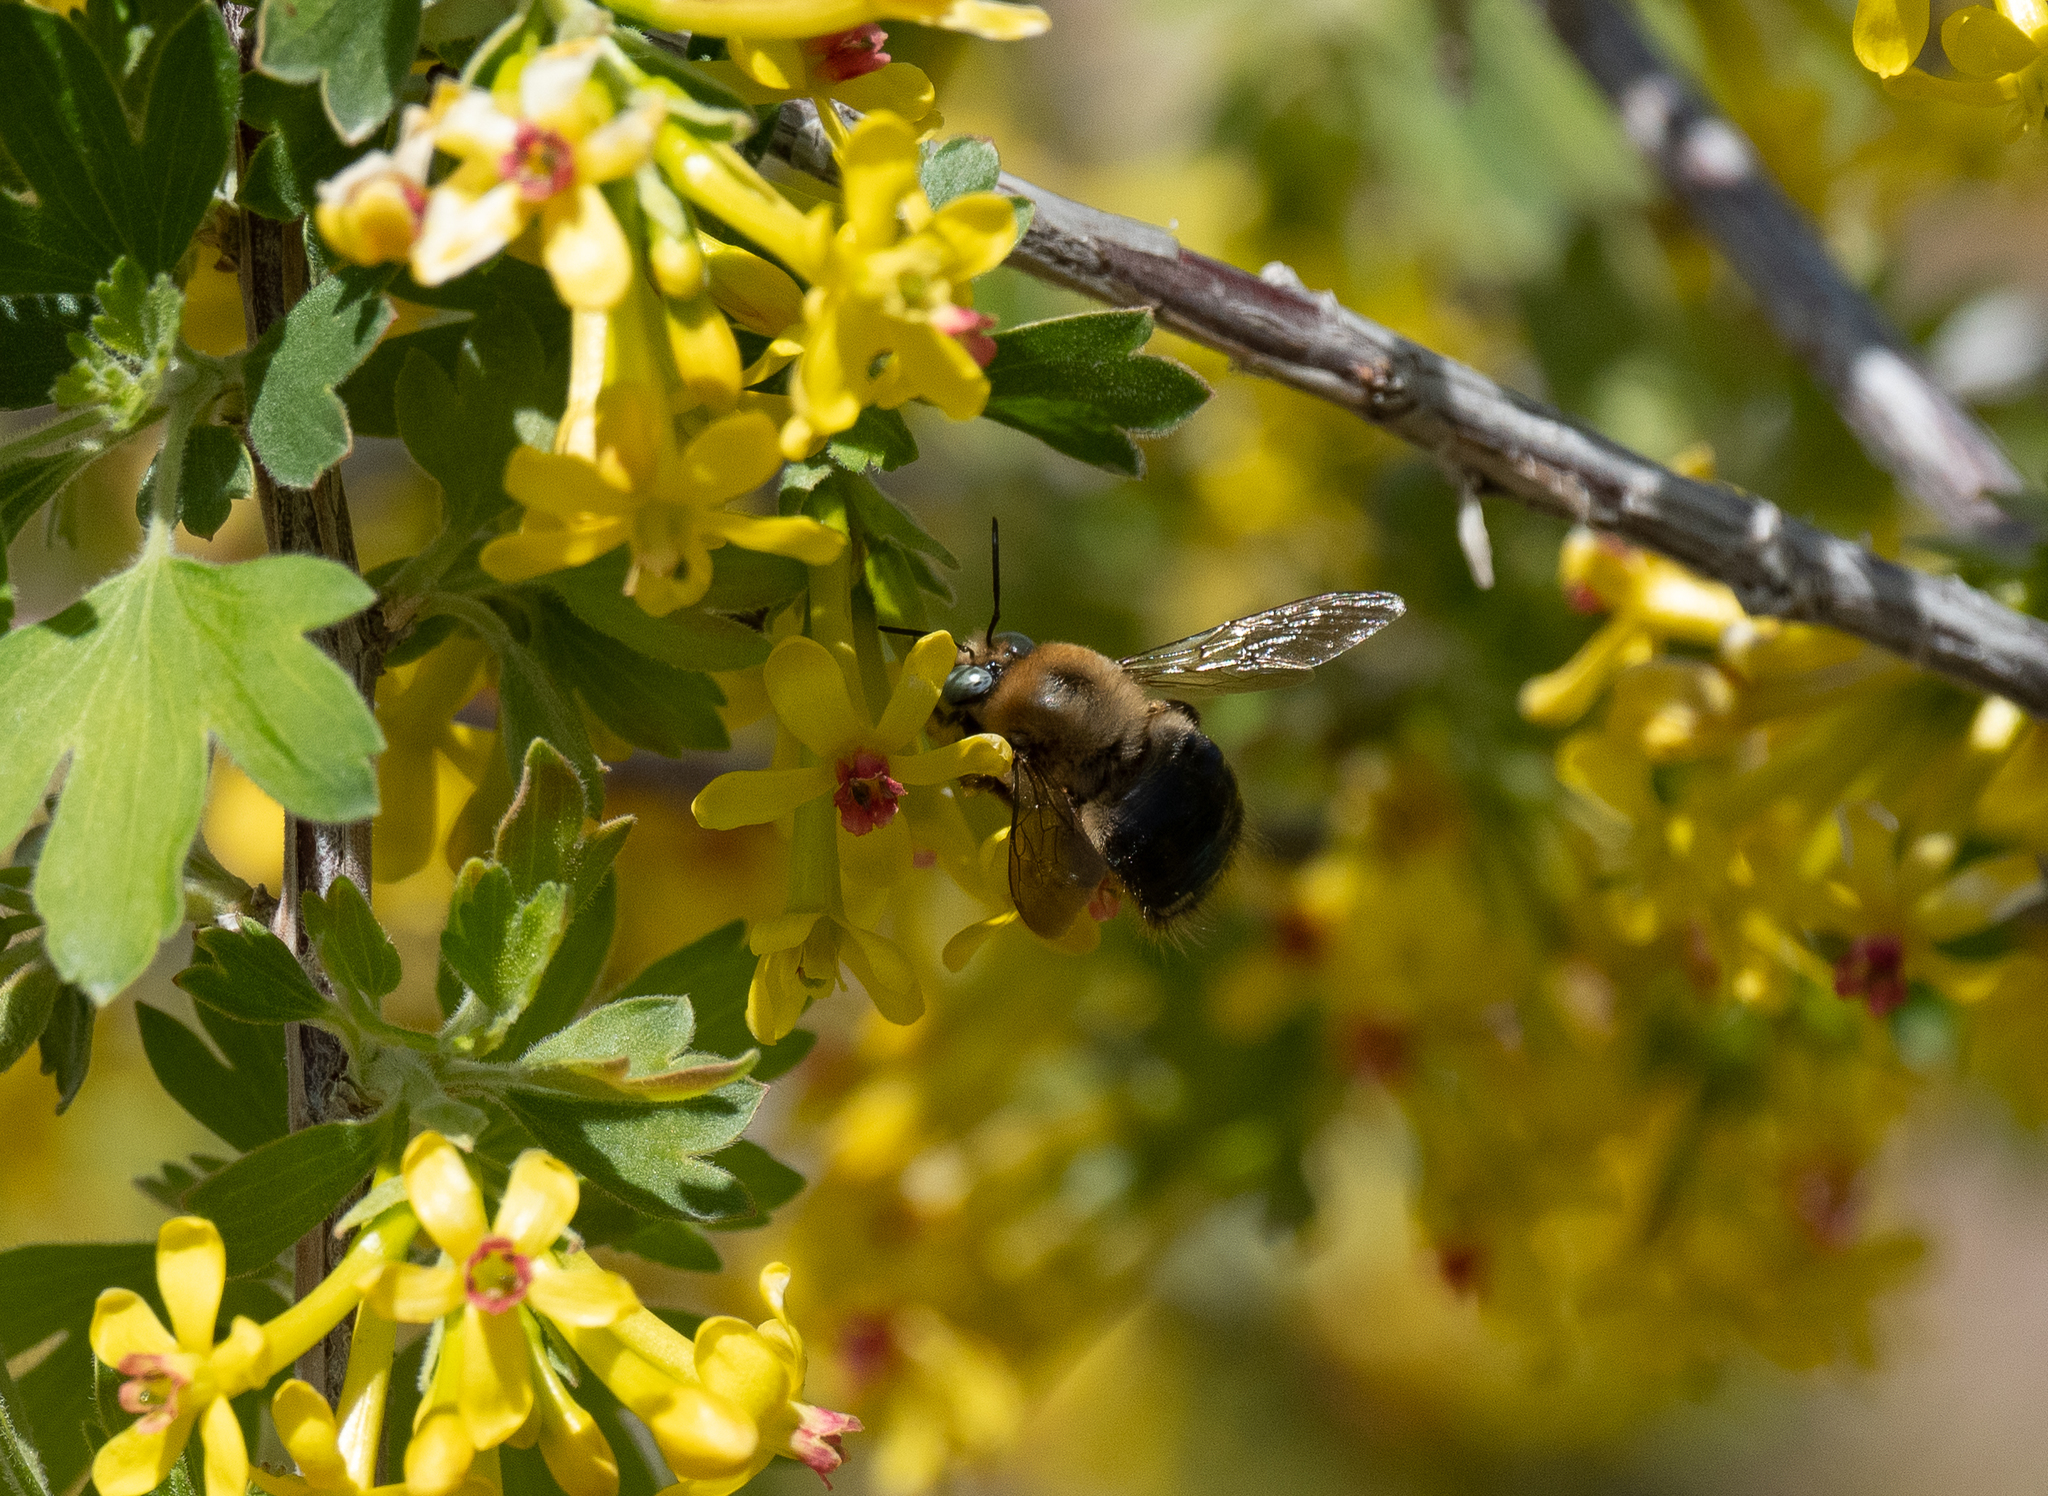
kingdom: Animalia
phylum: Arthropoda
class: Insecta
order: Hymenoptera
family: Apidae
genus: Xylocopa
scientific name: Xylocopa tabaniformis
